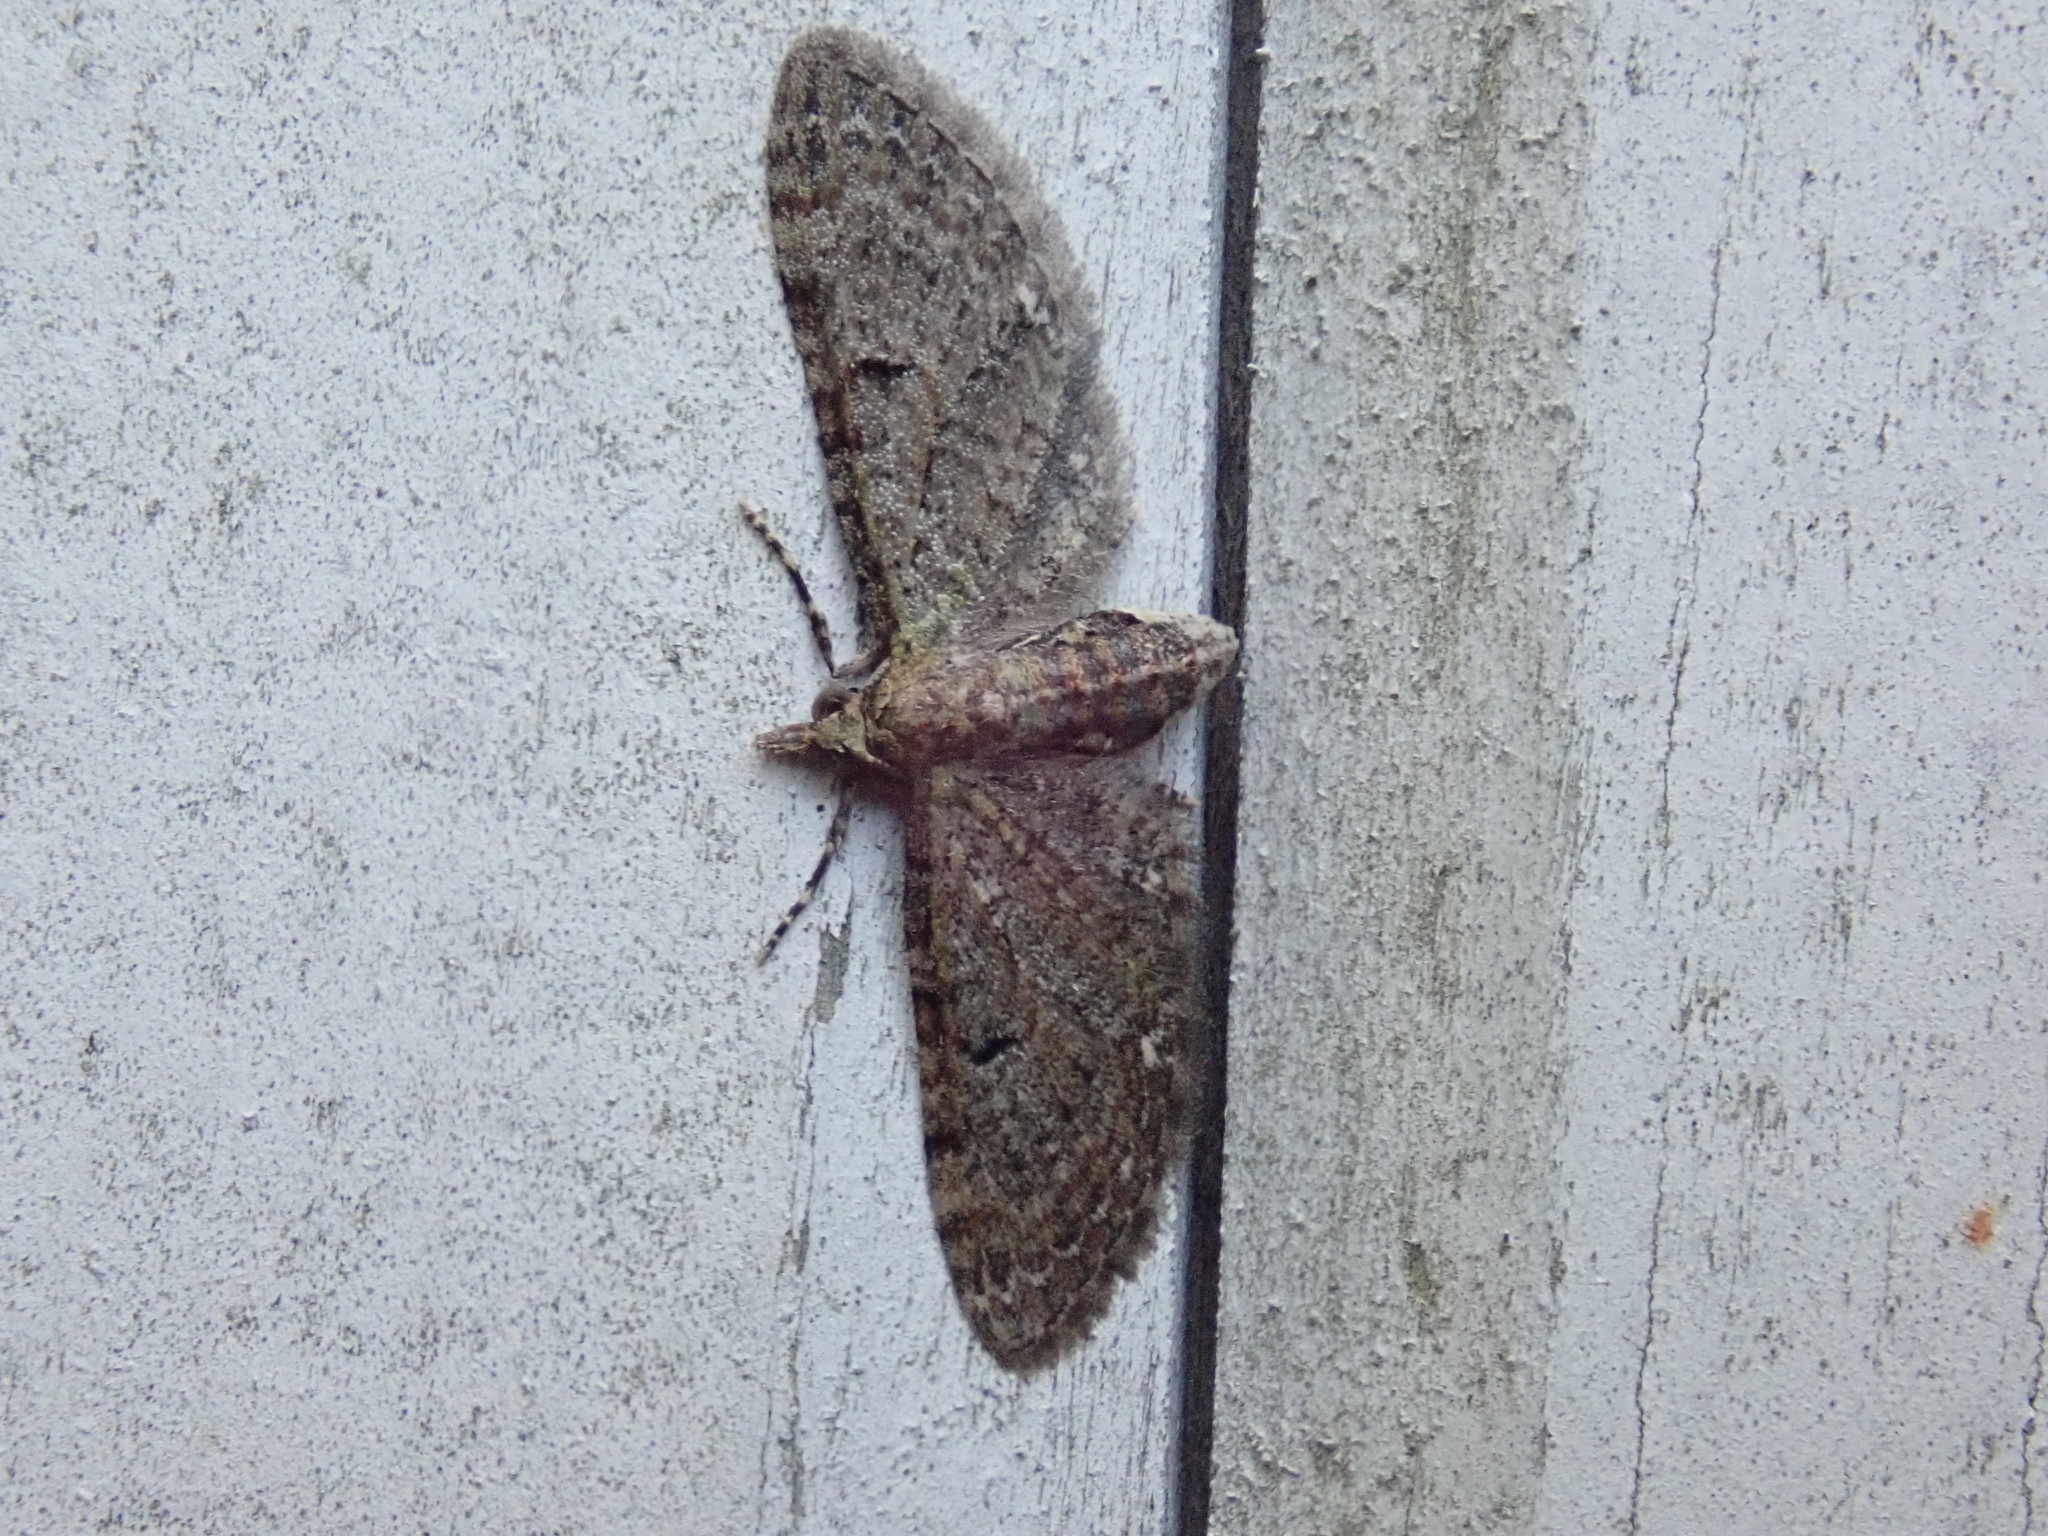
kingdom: Animalia
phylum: Arthropoda
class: Insecta
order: Lepidoptera
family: Geometridae
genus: Eupithecia
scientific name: Eupithecia miserulata
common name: Common eupithecia
